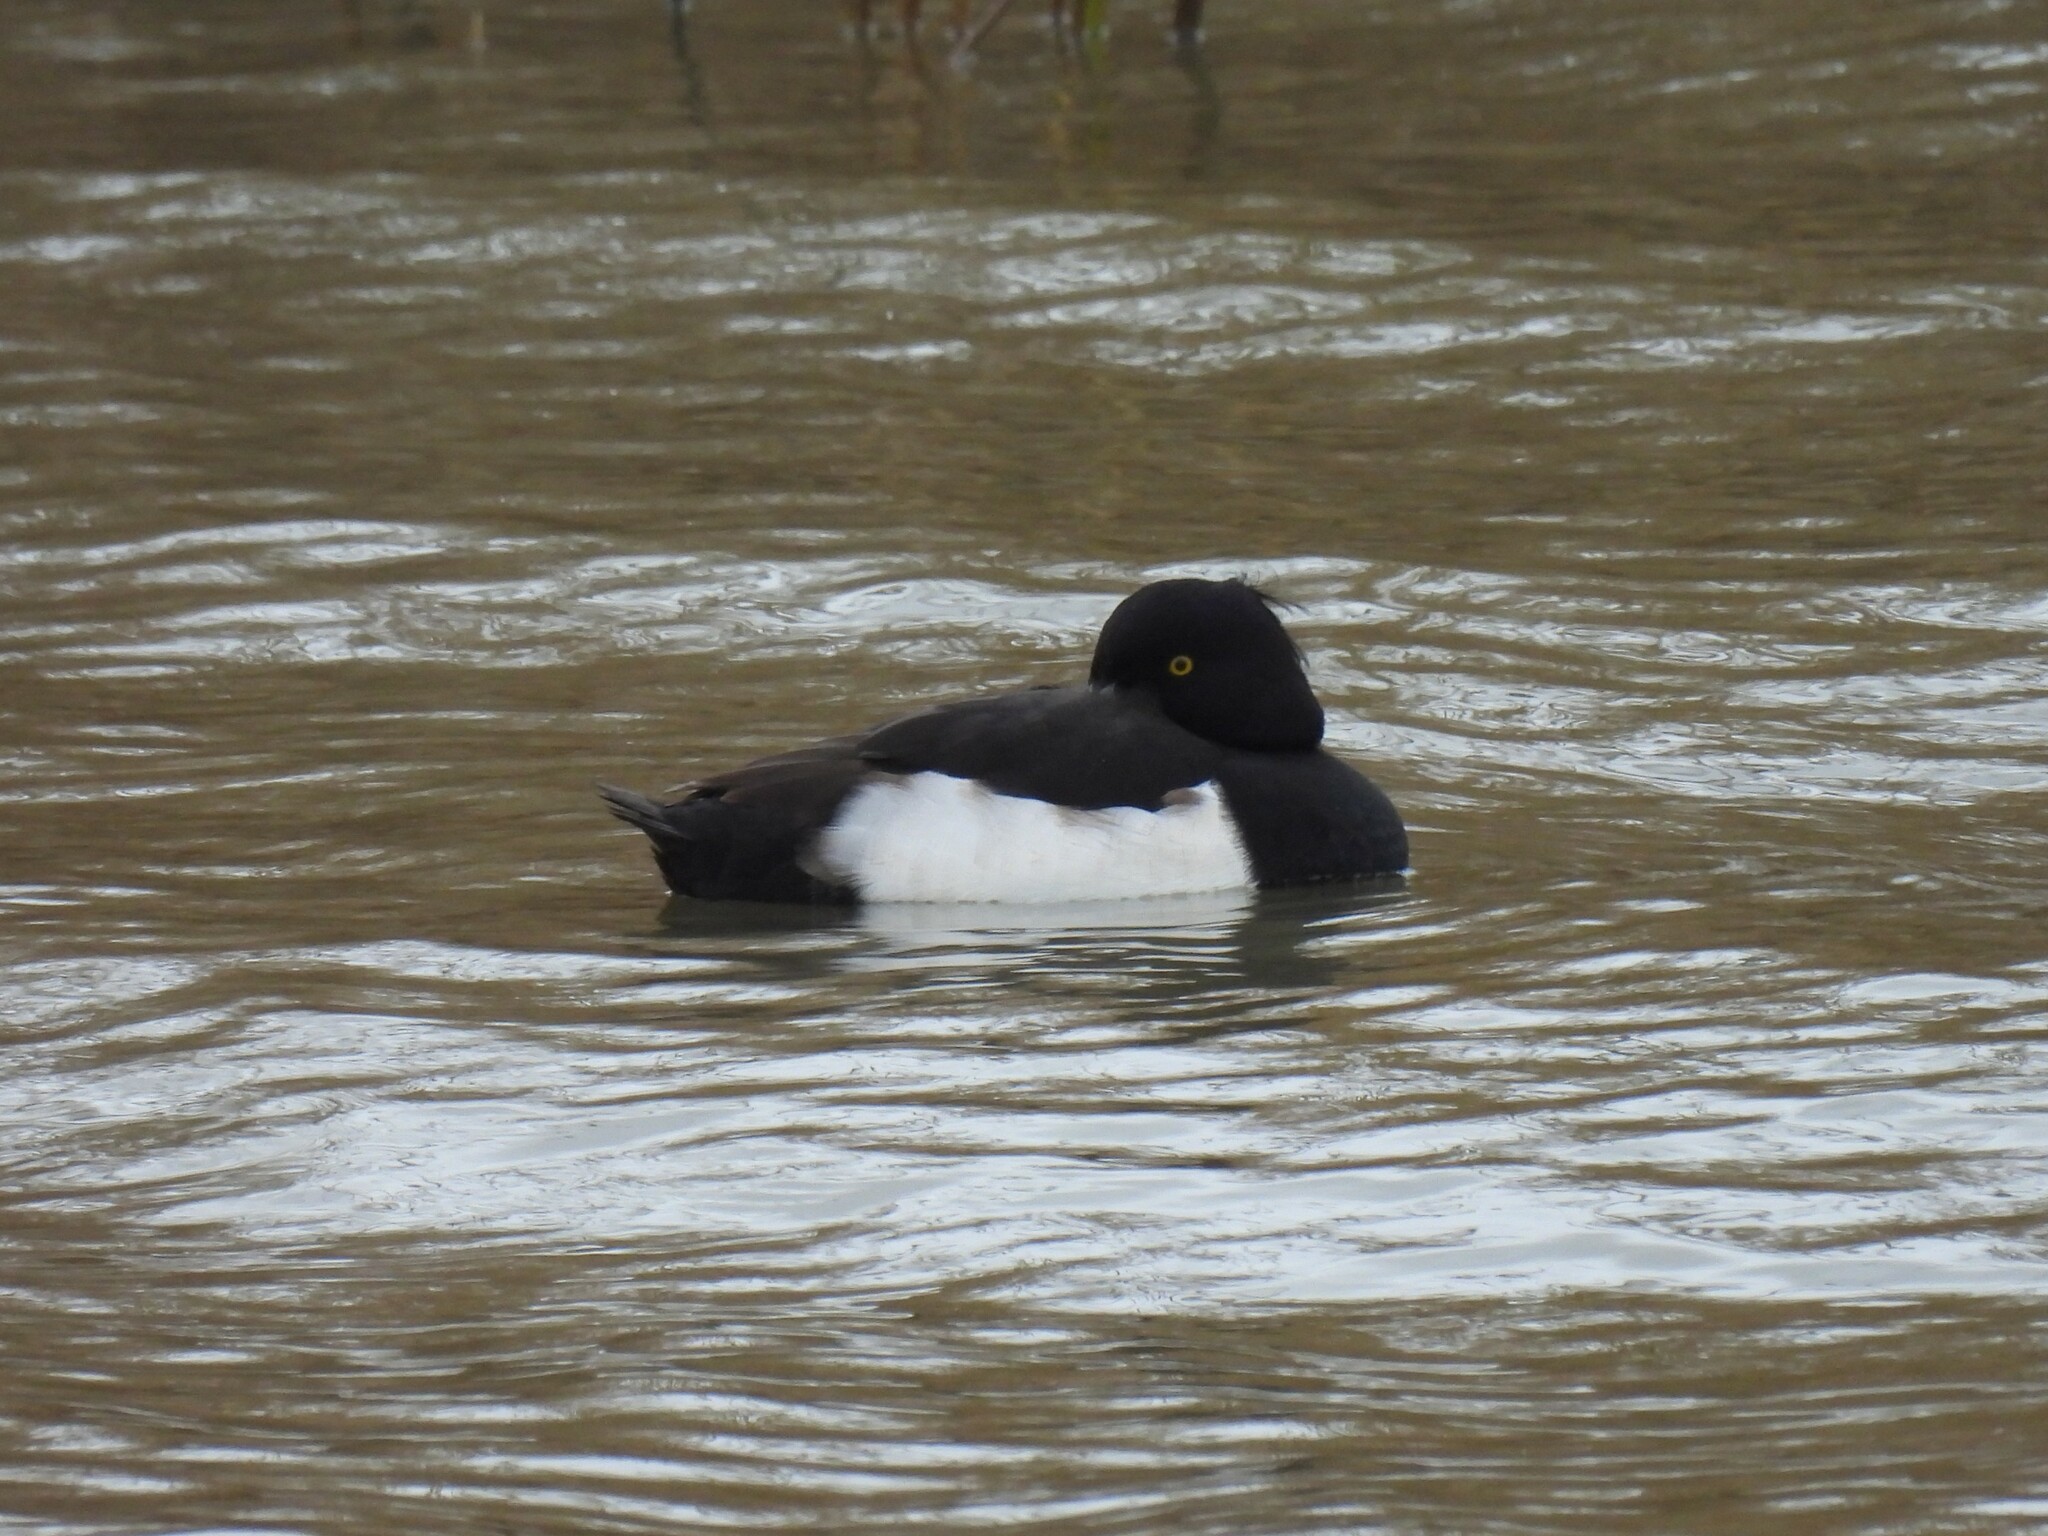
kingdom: Animalia
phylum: Chordata
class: Aves
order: Anseriformes
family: Anatidae
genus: Aythya
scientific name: Aythya fuligula
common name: Tufted duck
